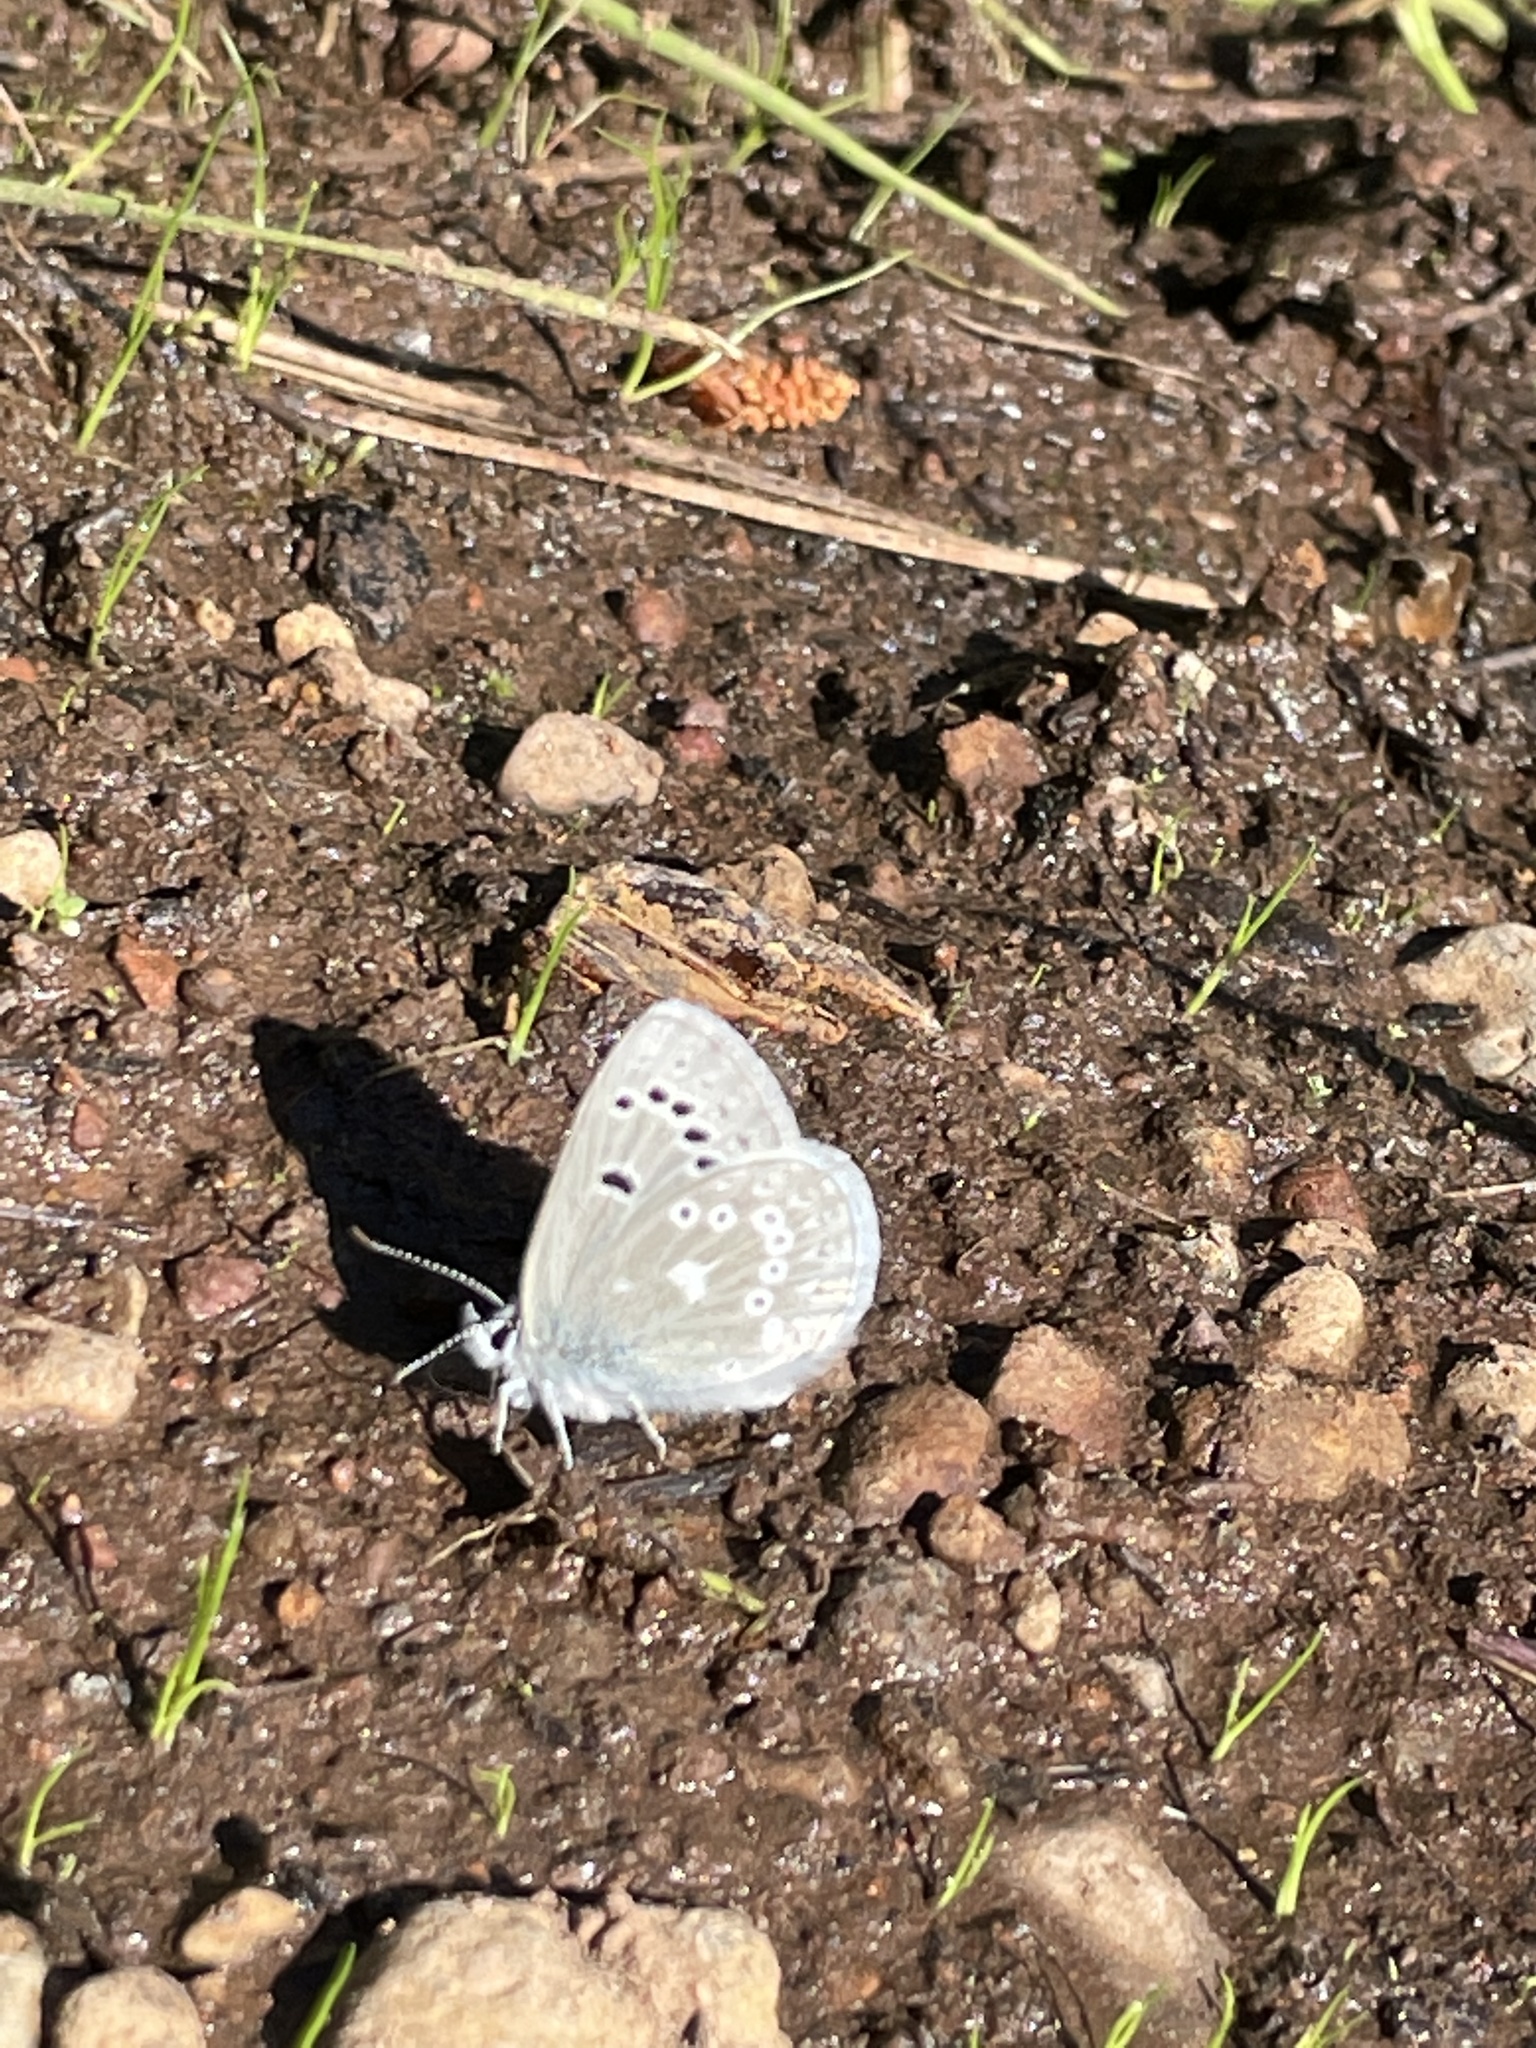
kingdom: Animalia
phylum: Arthropoda
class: Insecta
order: Lepidoptera
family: Lycaenidae
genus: Icaricia
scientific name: Icaricia icarioides
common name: Boisduval's blue
